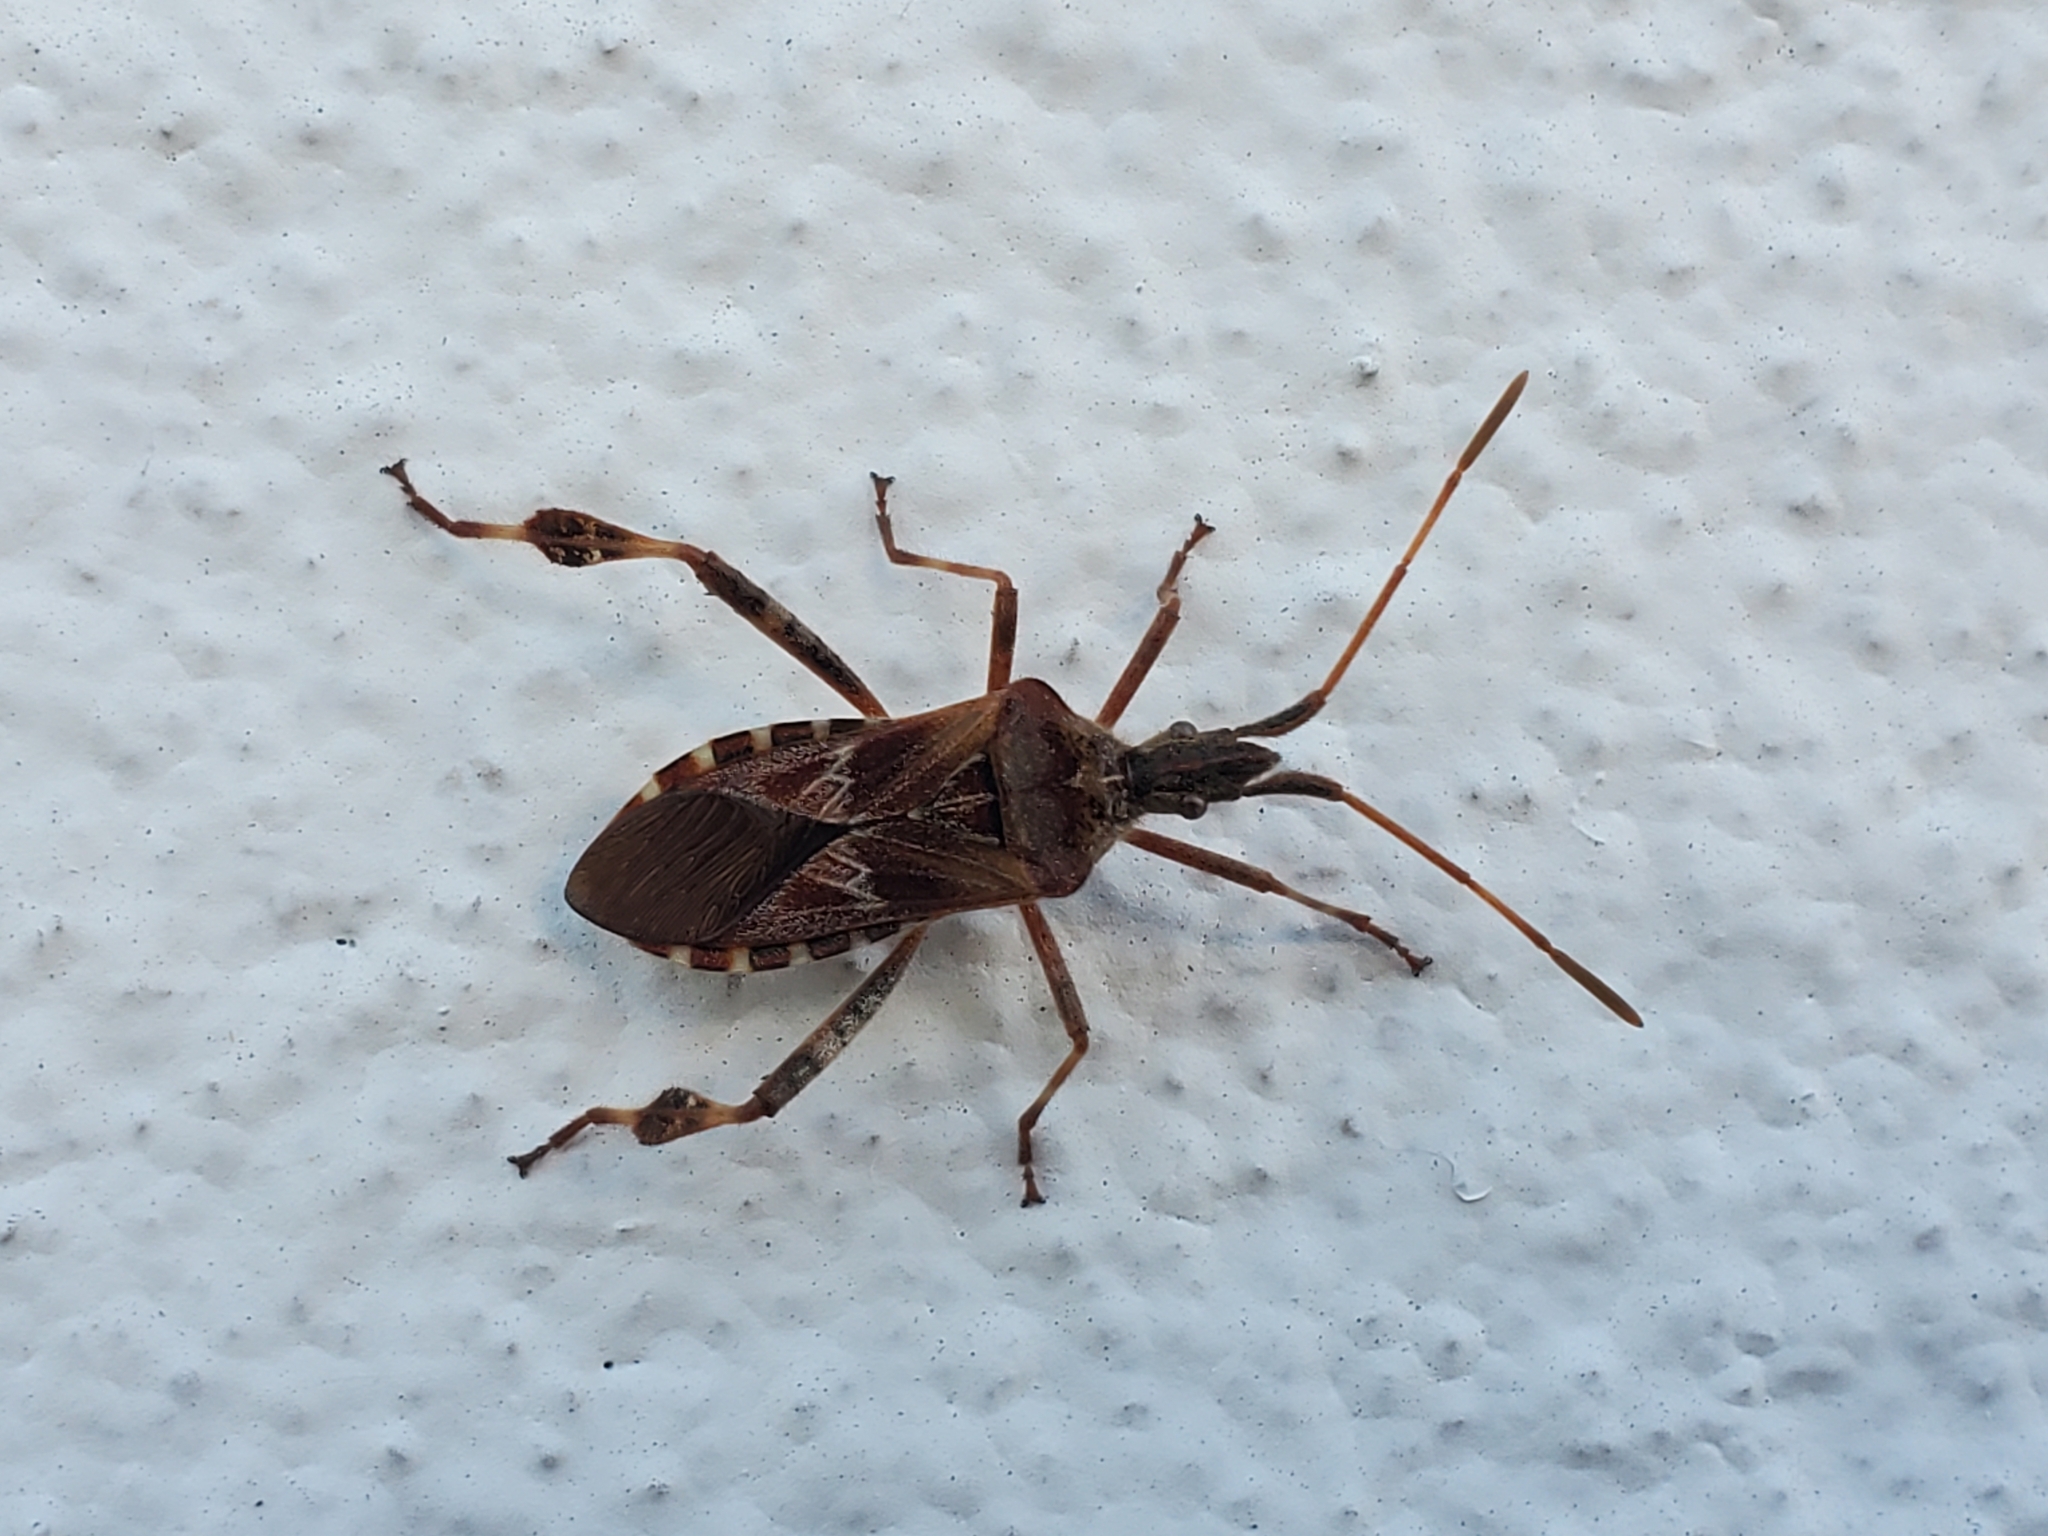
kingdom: Animalia
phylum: Arthropoda
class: Insecta
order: Hemiptera
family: Coreidae
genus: Leptoglossus
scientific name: Leptoglossus occidentalis
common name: Western conifer-seed bug
